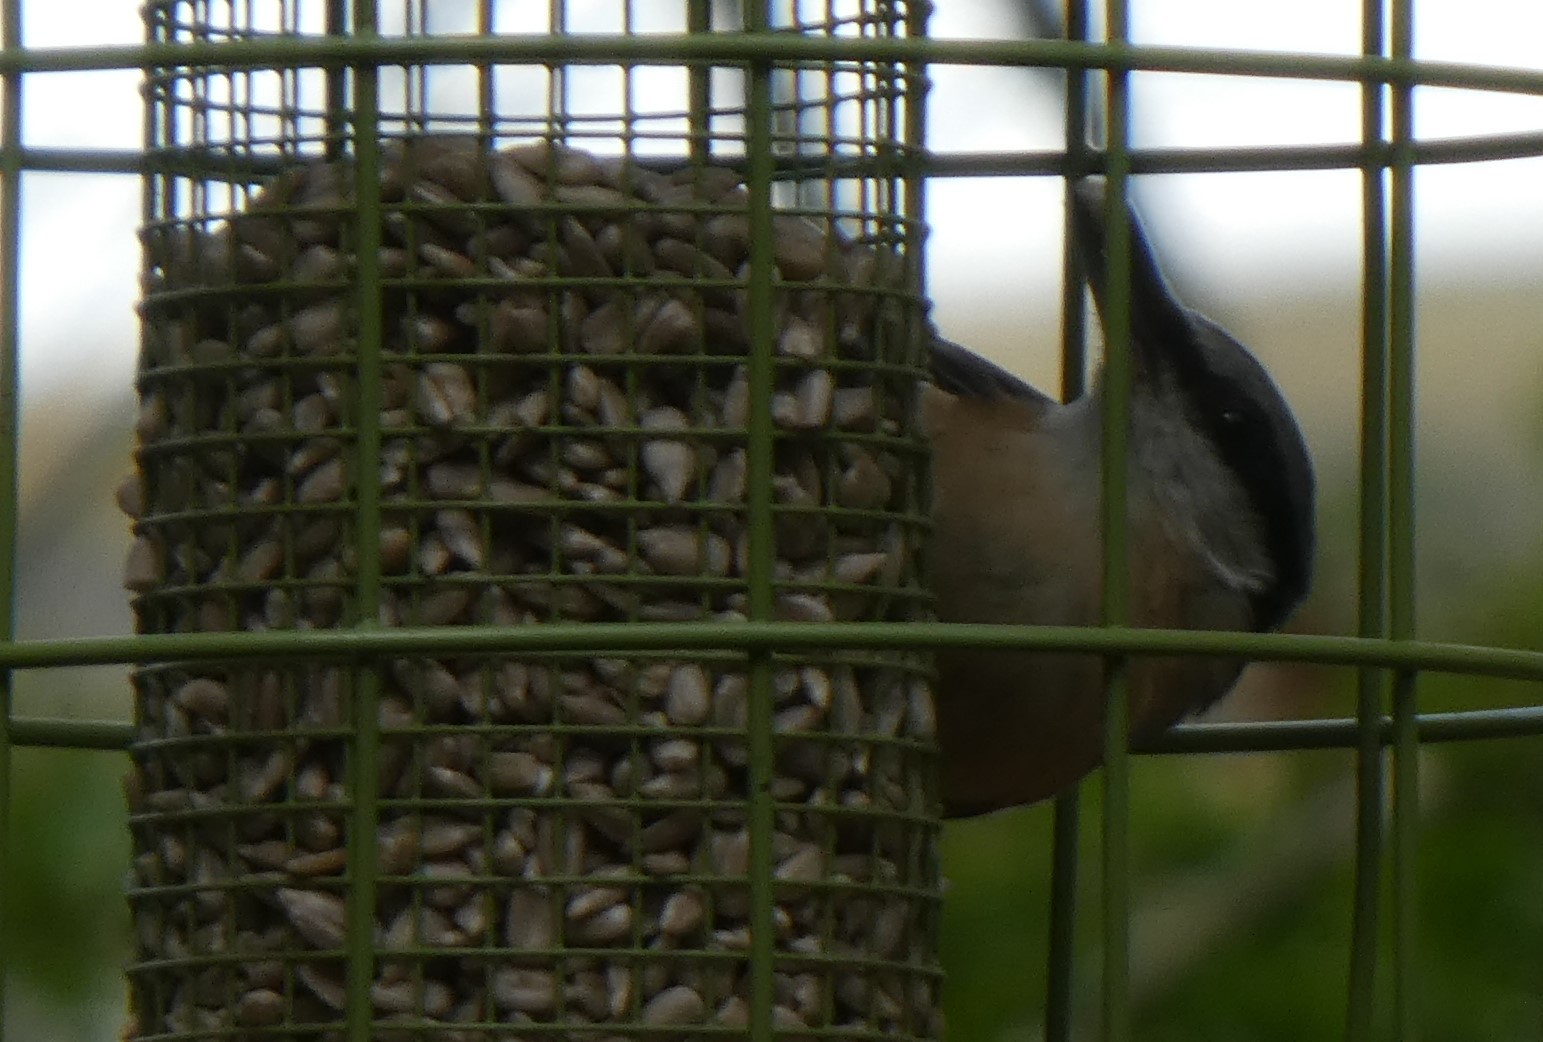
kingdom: Animalia
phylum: Chordata
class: Aves
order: Passeriformes
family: Sittidae
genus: Sitta
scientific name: Sitta europaea
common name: Eurasian nuthatch
